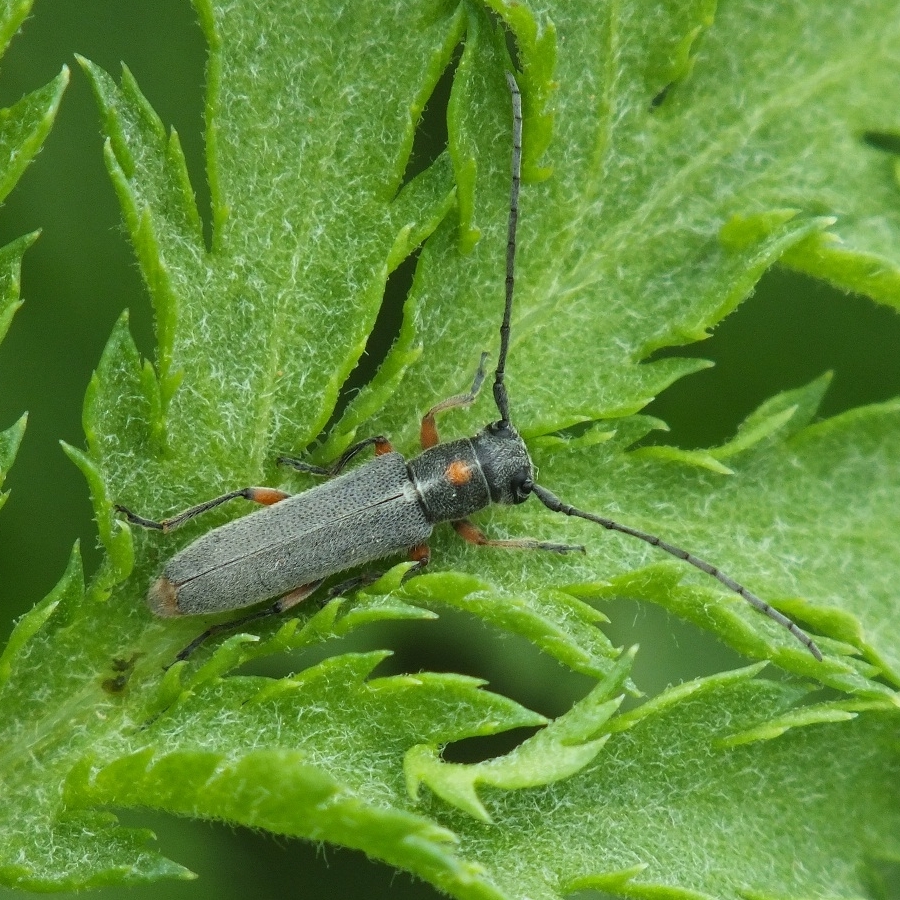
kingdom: Animalia
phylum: Arthropoda
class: Insecta
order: Coleoptera
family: Cerambycidae
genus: Phytoecia
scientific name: Phytoecia virgula
